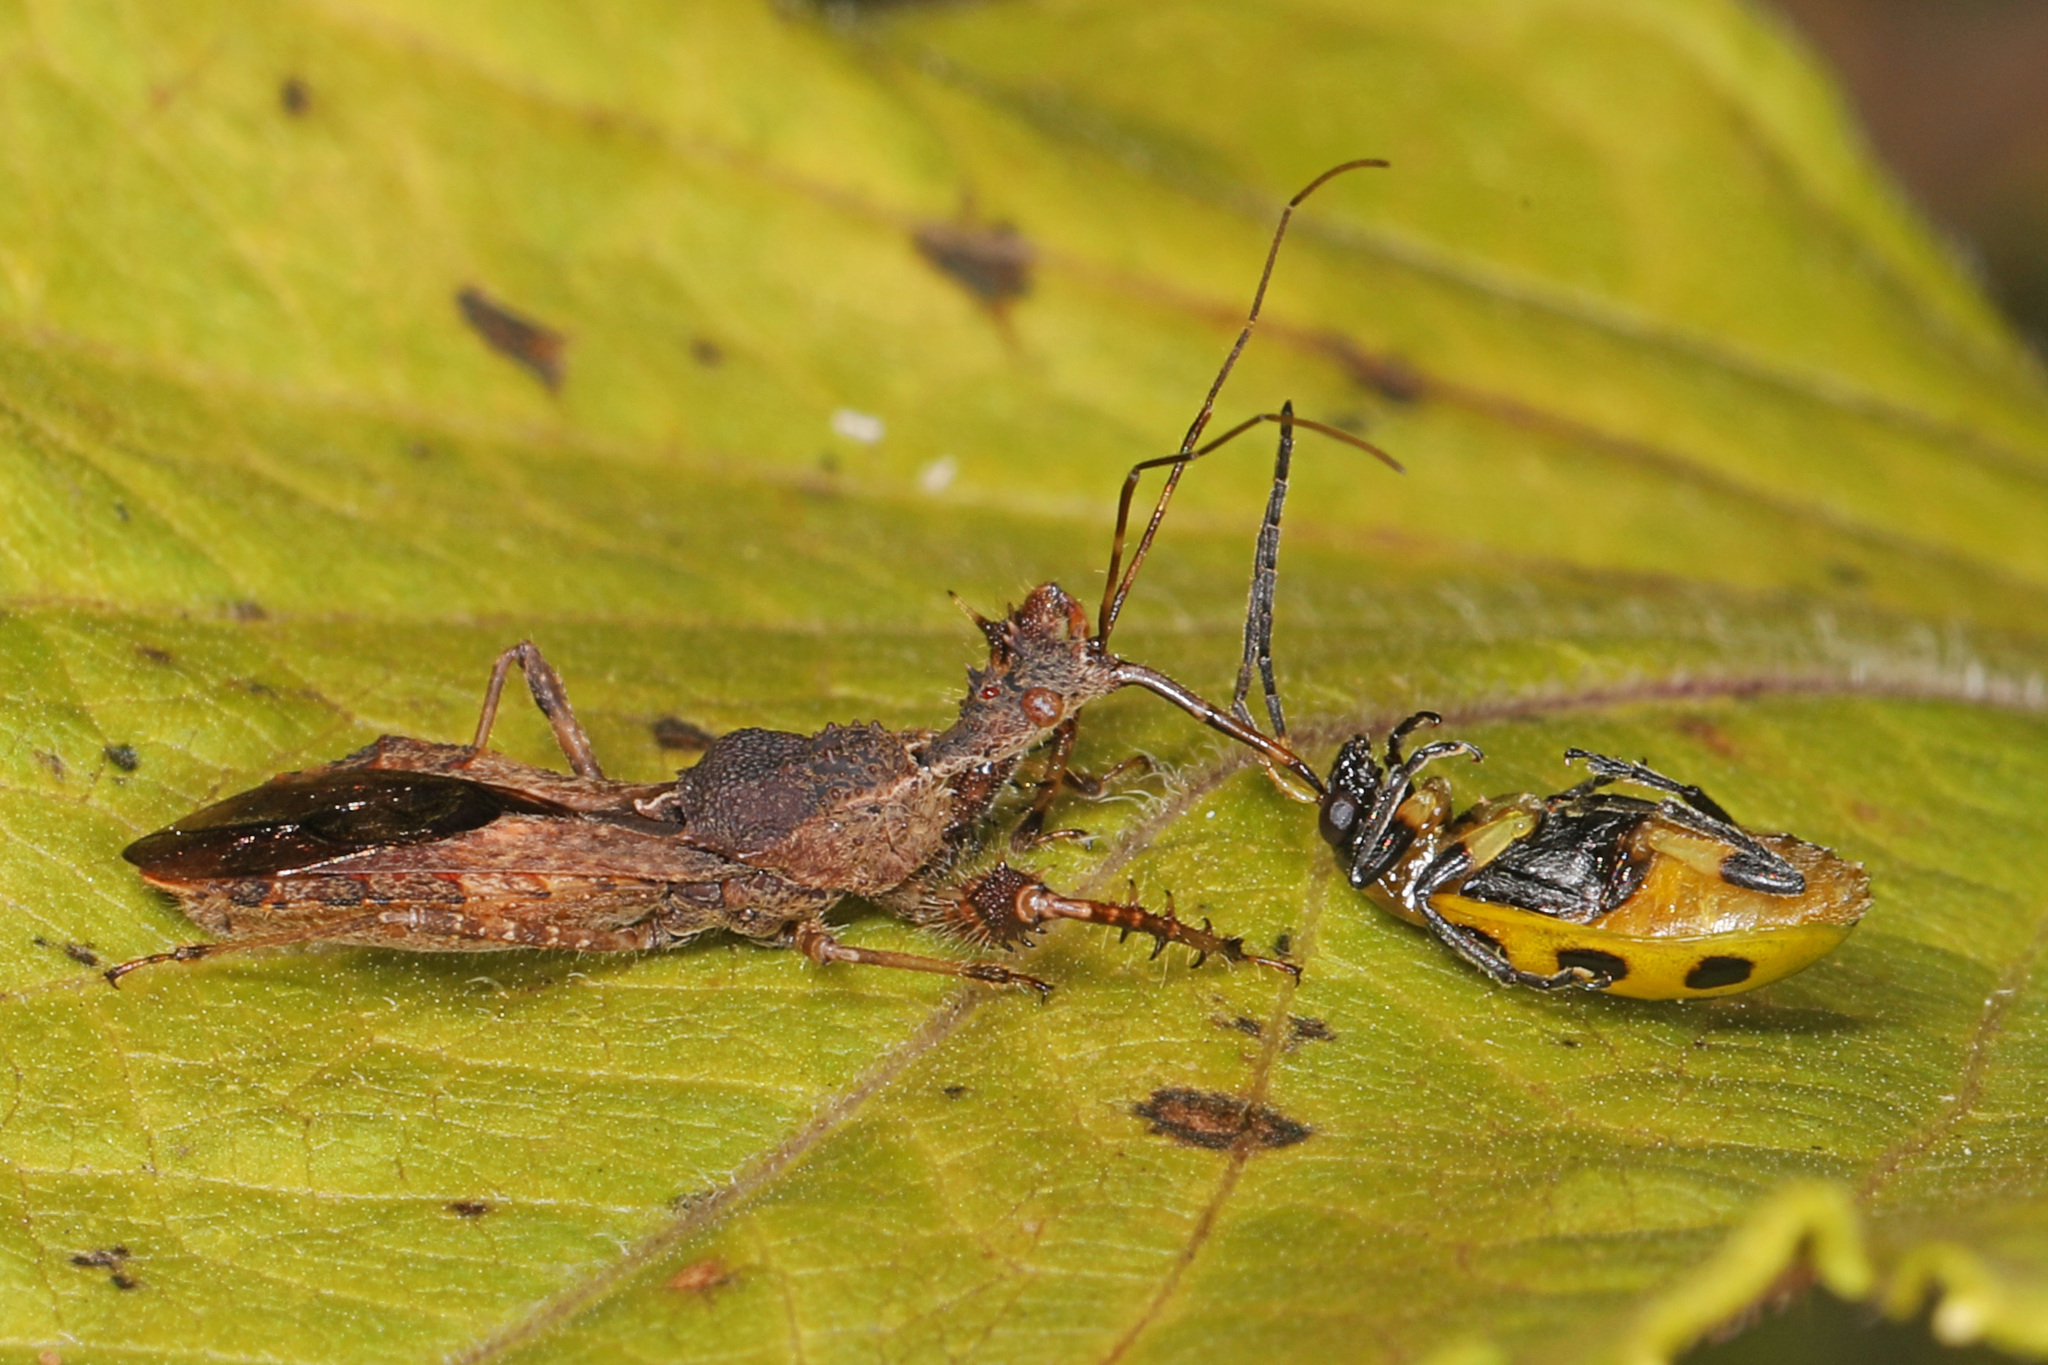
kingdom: Animalia
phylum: Arthropoda
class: Insecta
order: Hemiptera
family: Reduviidae
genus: Sinea
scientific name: Sinea diadema
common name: Spined assassin bug
